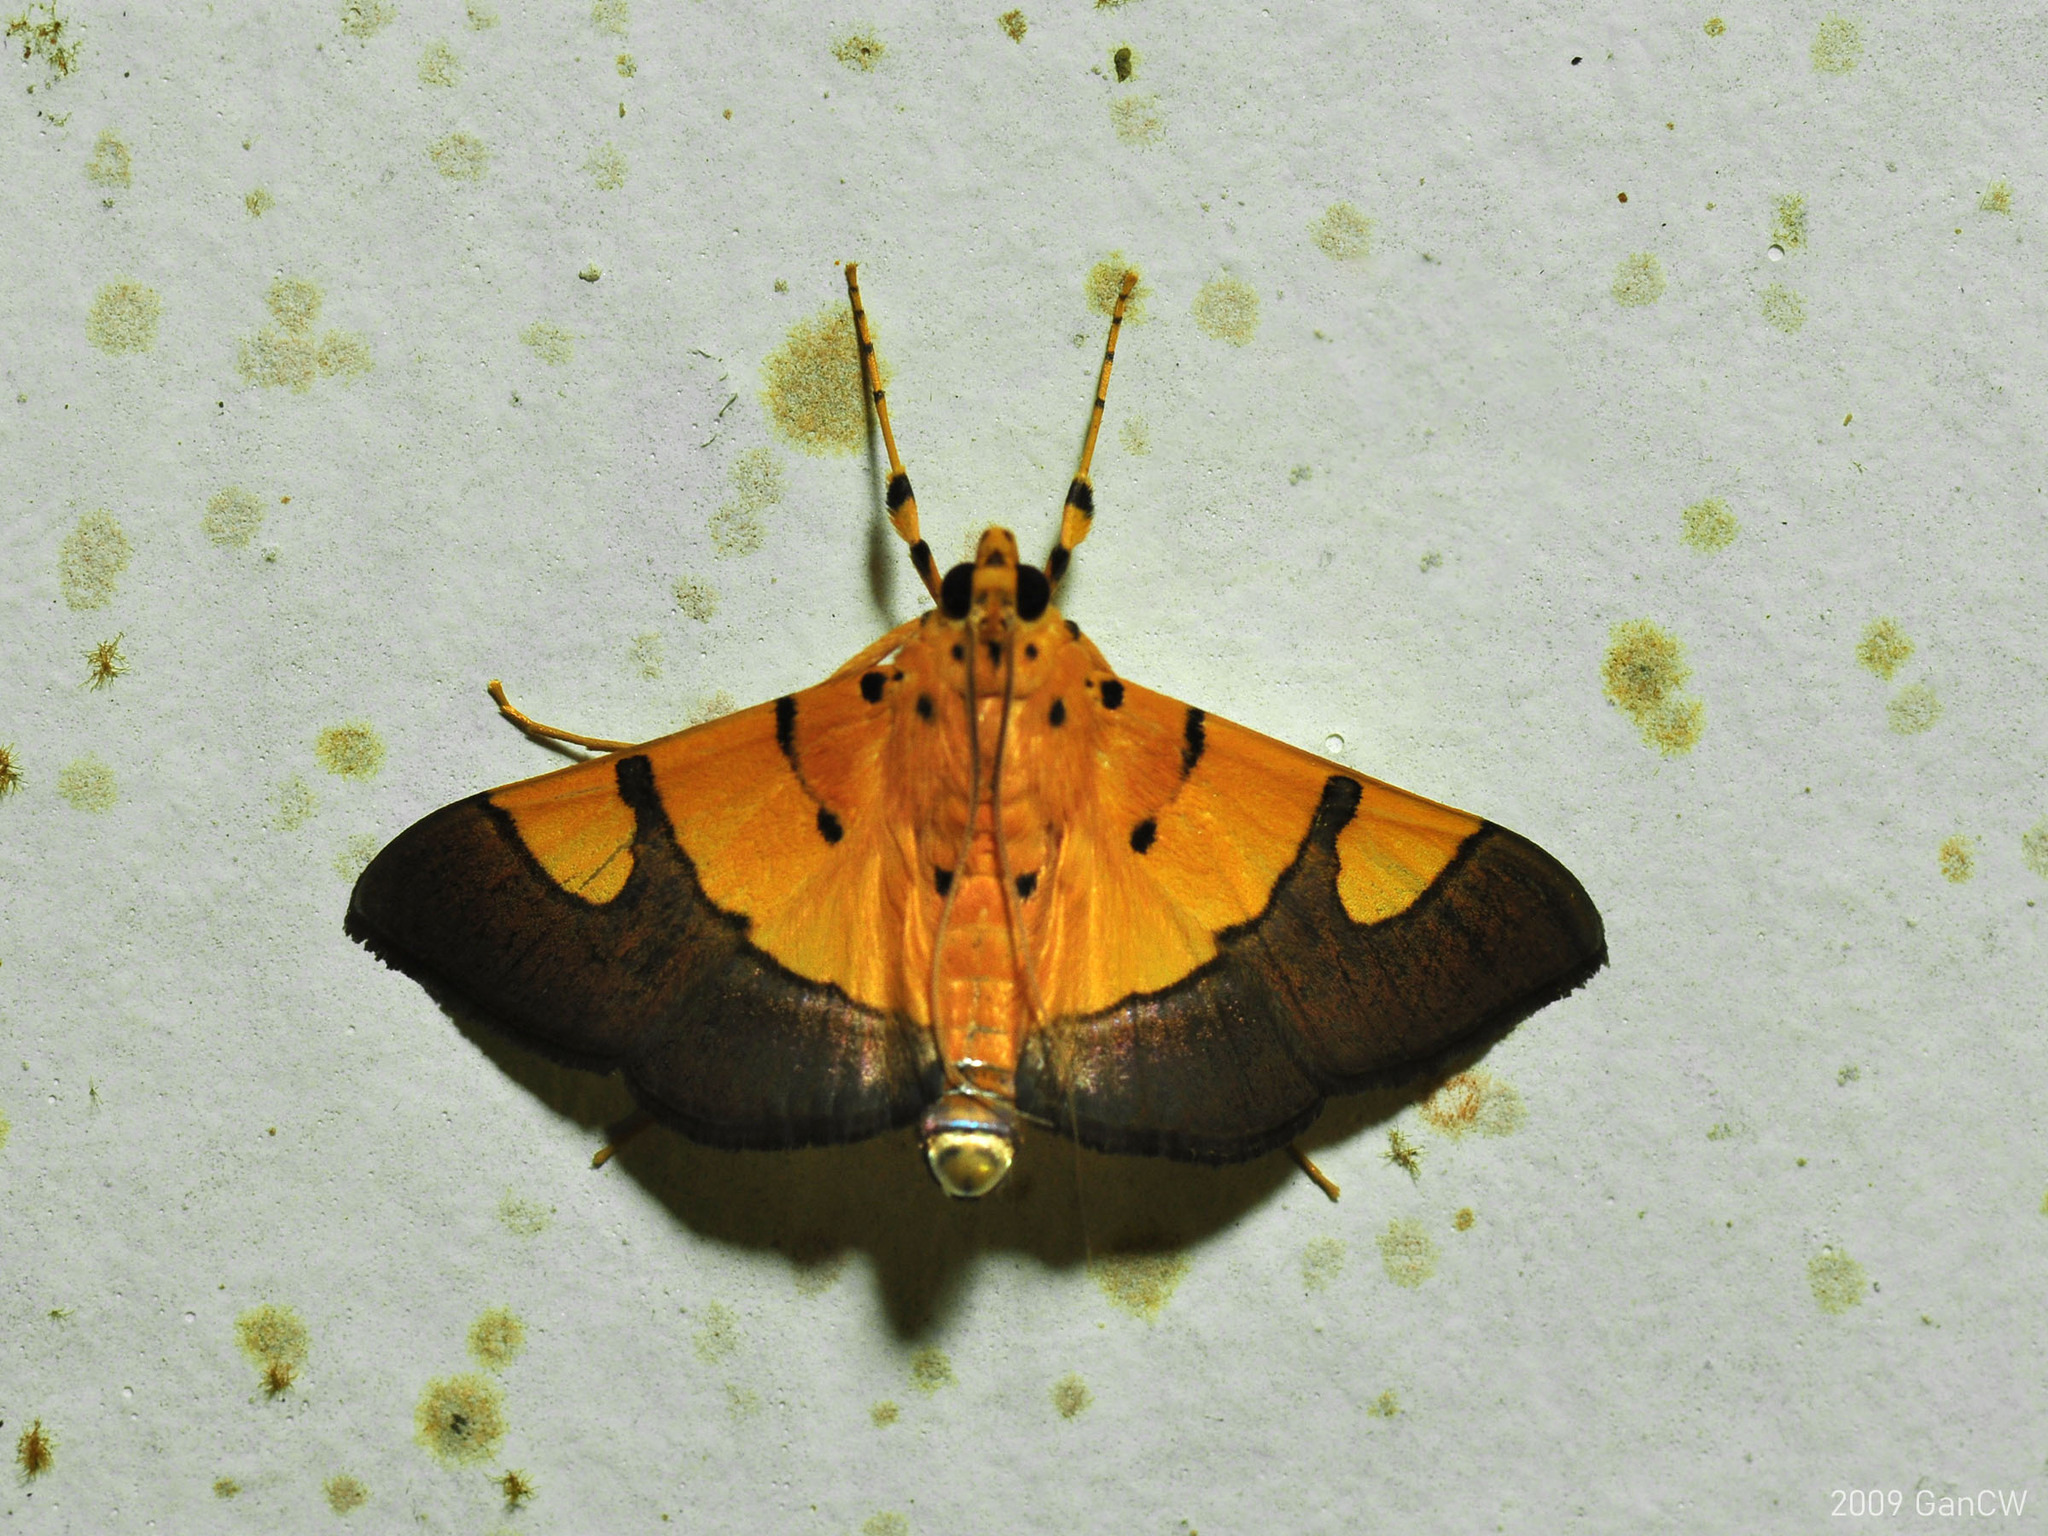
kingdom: Animalia
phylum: Arthropoda
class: Insecta
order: Lepidoptera
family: Crambidae
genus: Botyodes
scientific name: Botyodes
